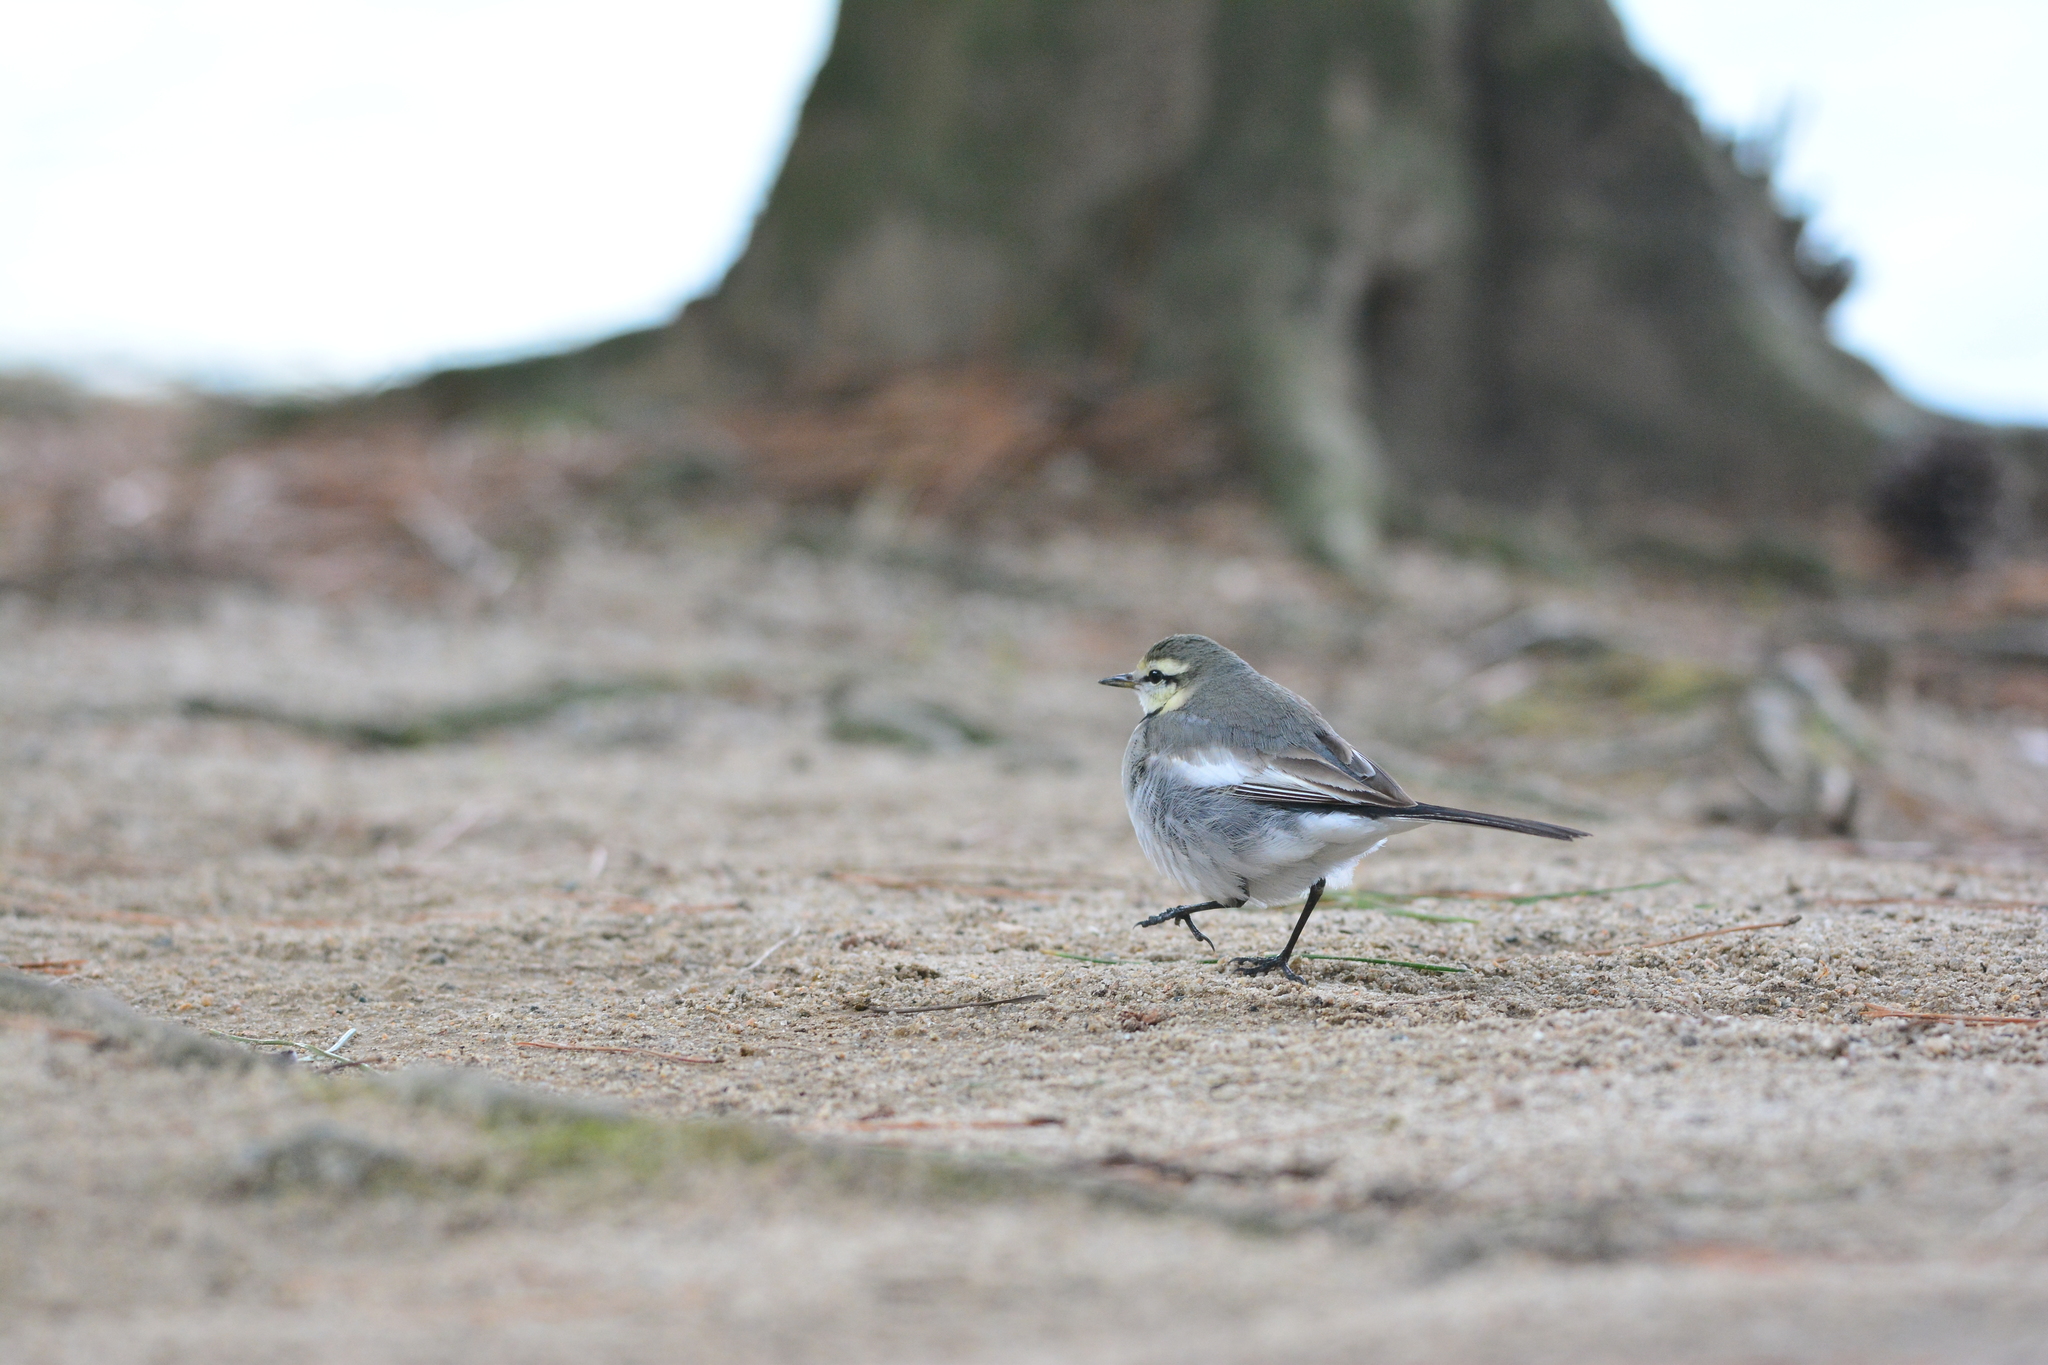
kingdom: Animalia
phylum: Chordata
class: Aves
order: Passeriformes
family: Motacillidae
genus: Motacilla
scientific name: Motacilla alba
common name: White wagtail
